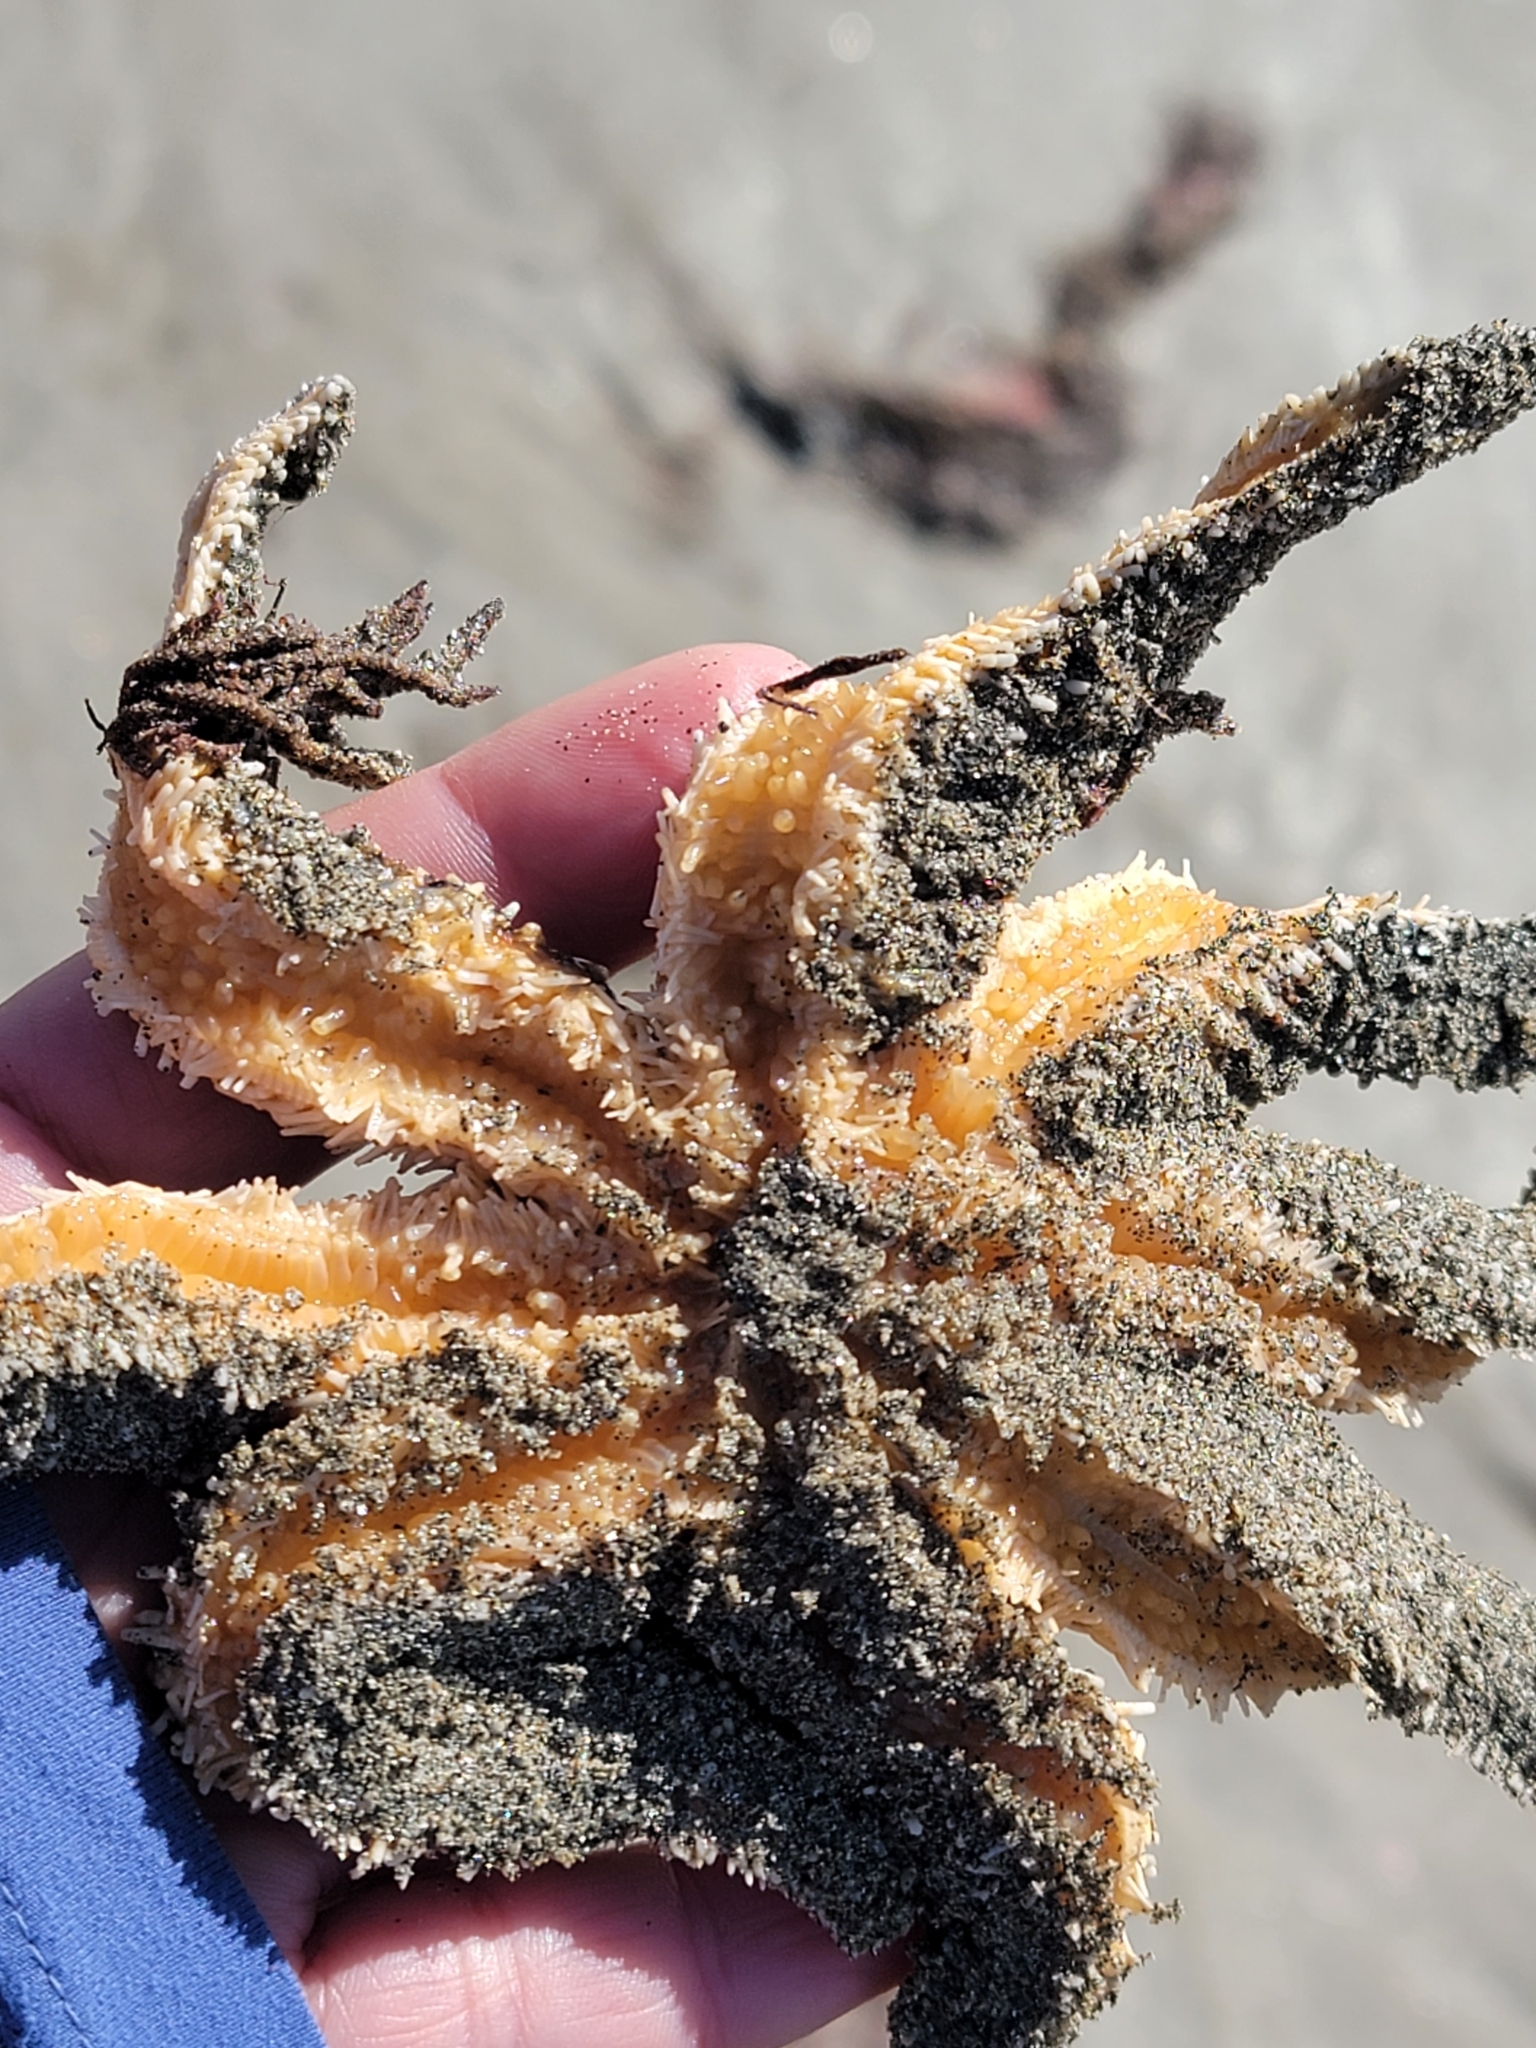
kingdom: Animalia
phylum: Echinodermata
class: Asteroidea
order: Forcipulatida
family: Asteriidae
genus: Coscinasterias
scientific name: Coscinasterias muricata
